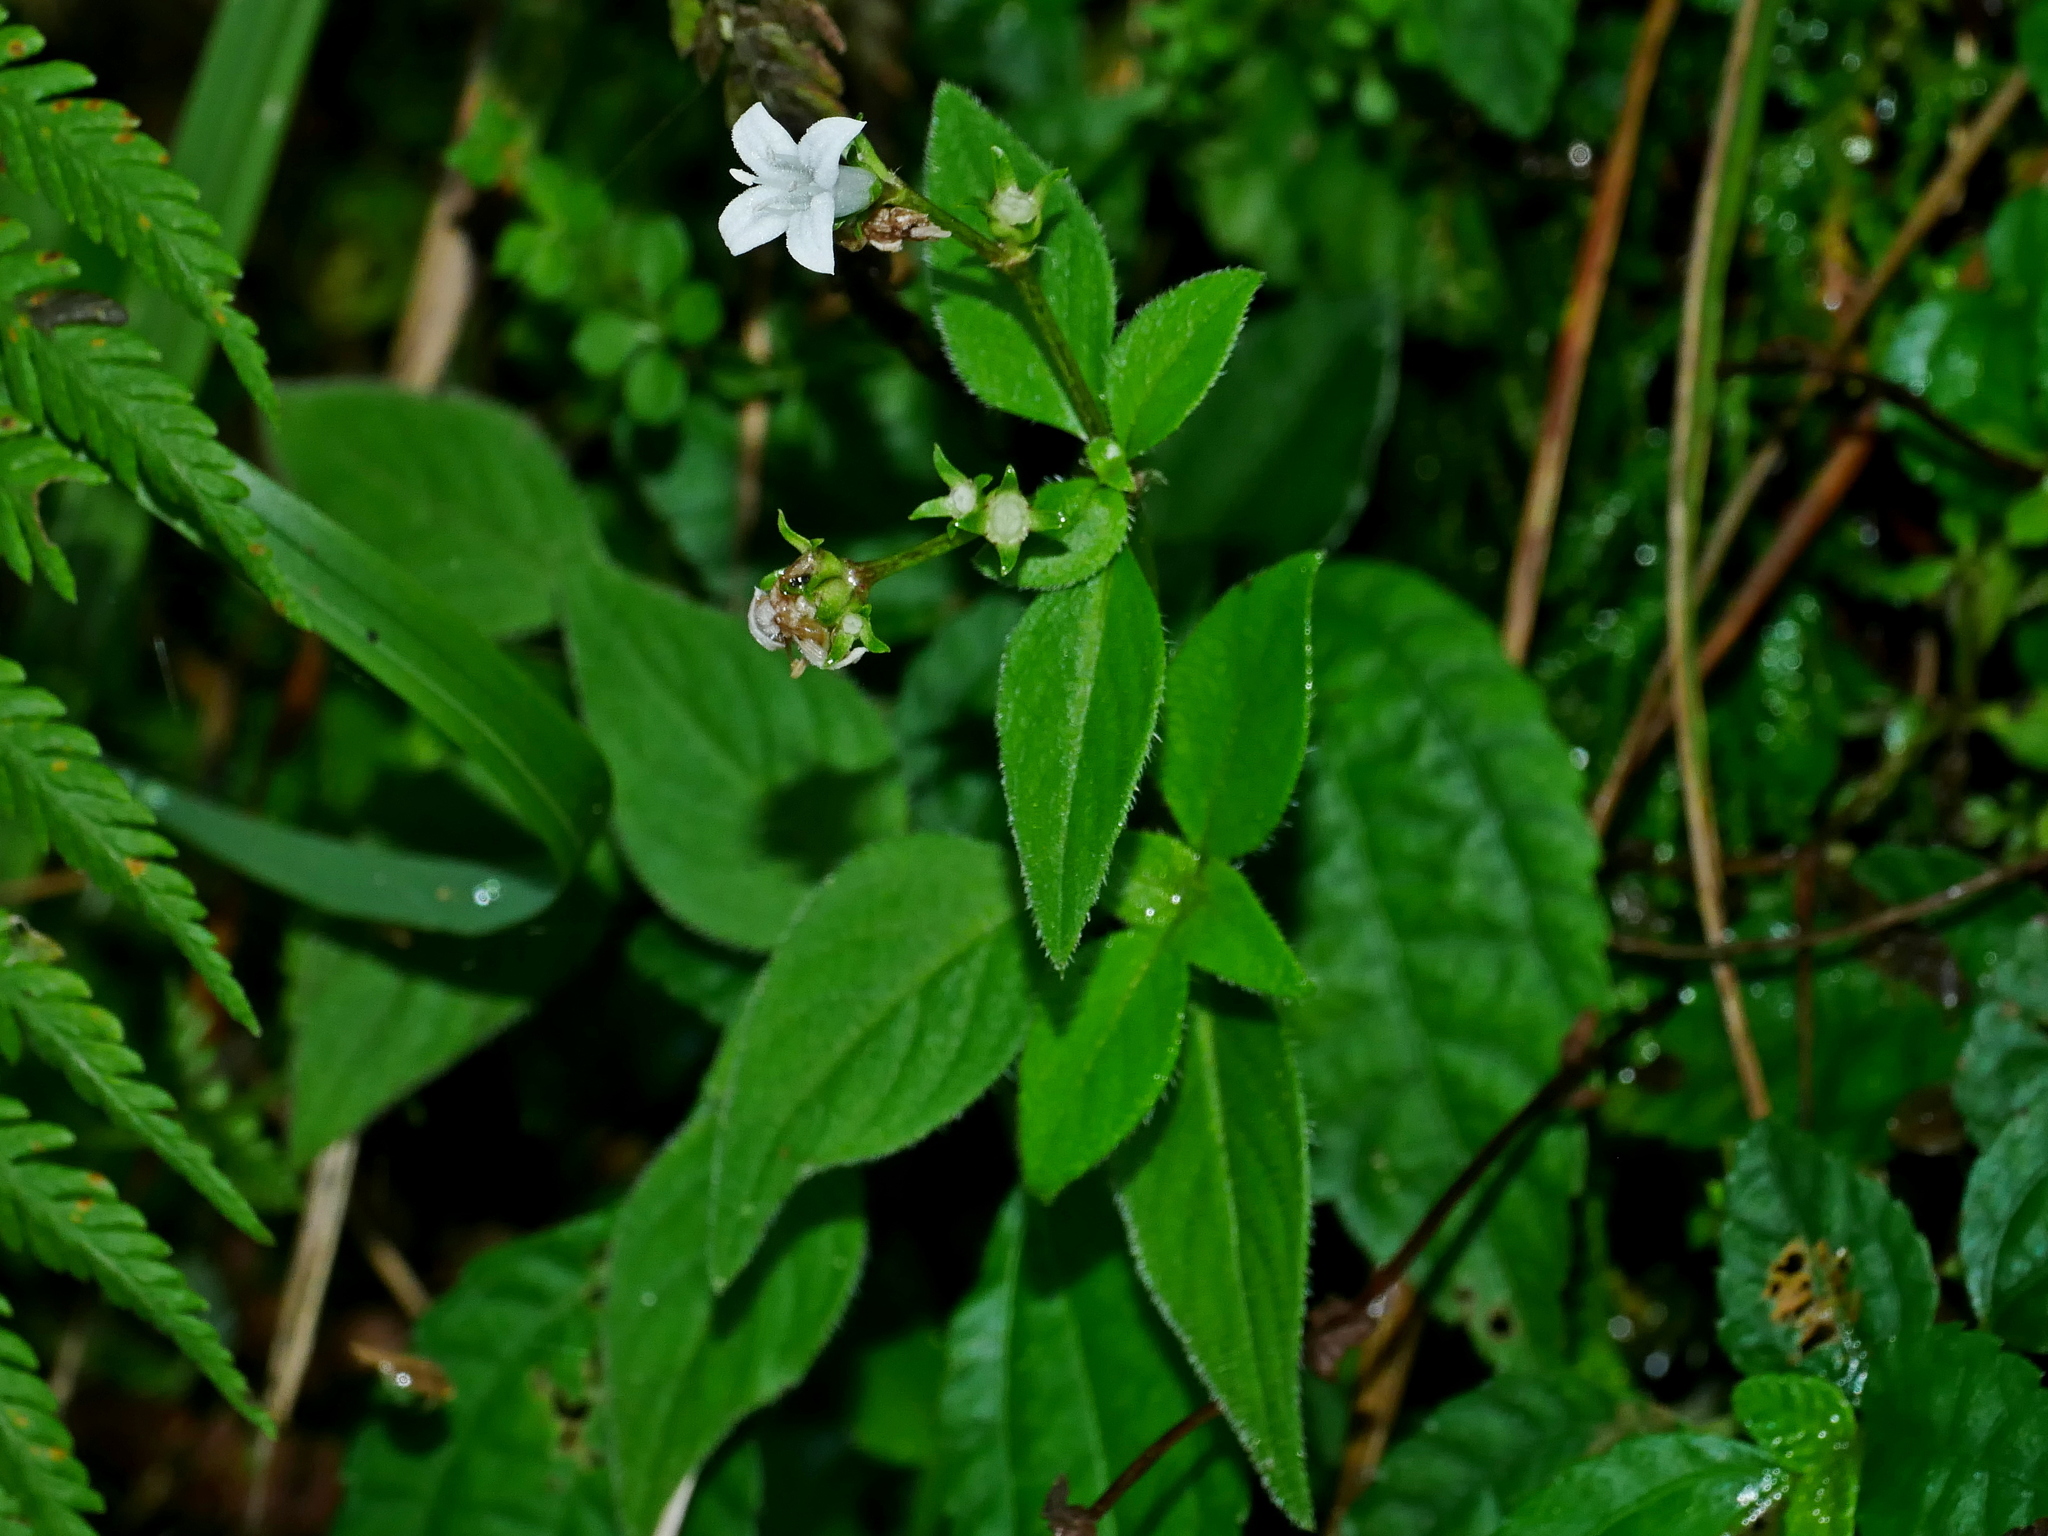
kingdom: Plantae
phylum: Tracheophyta
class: Magnoliopsida
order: Gentianales
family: Rubiaceae
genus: Neanotis
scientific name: Neanotis formosana
